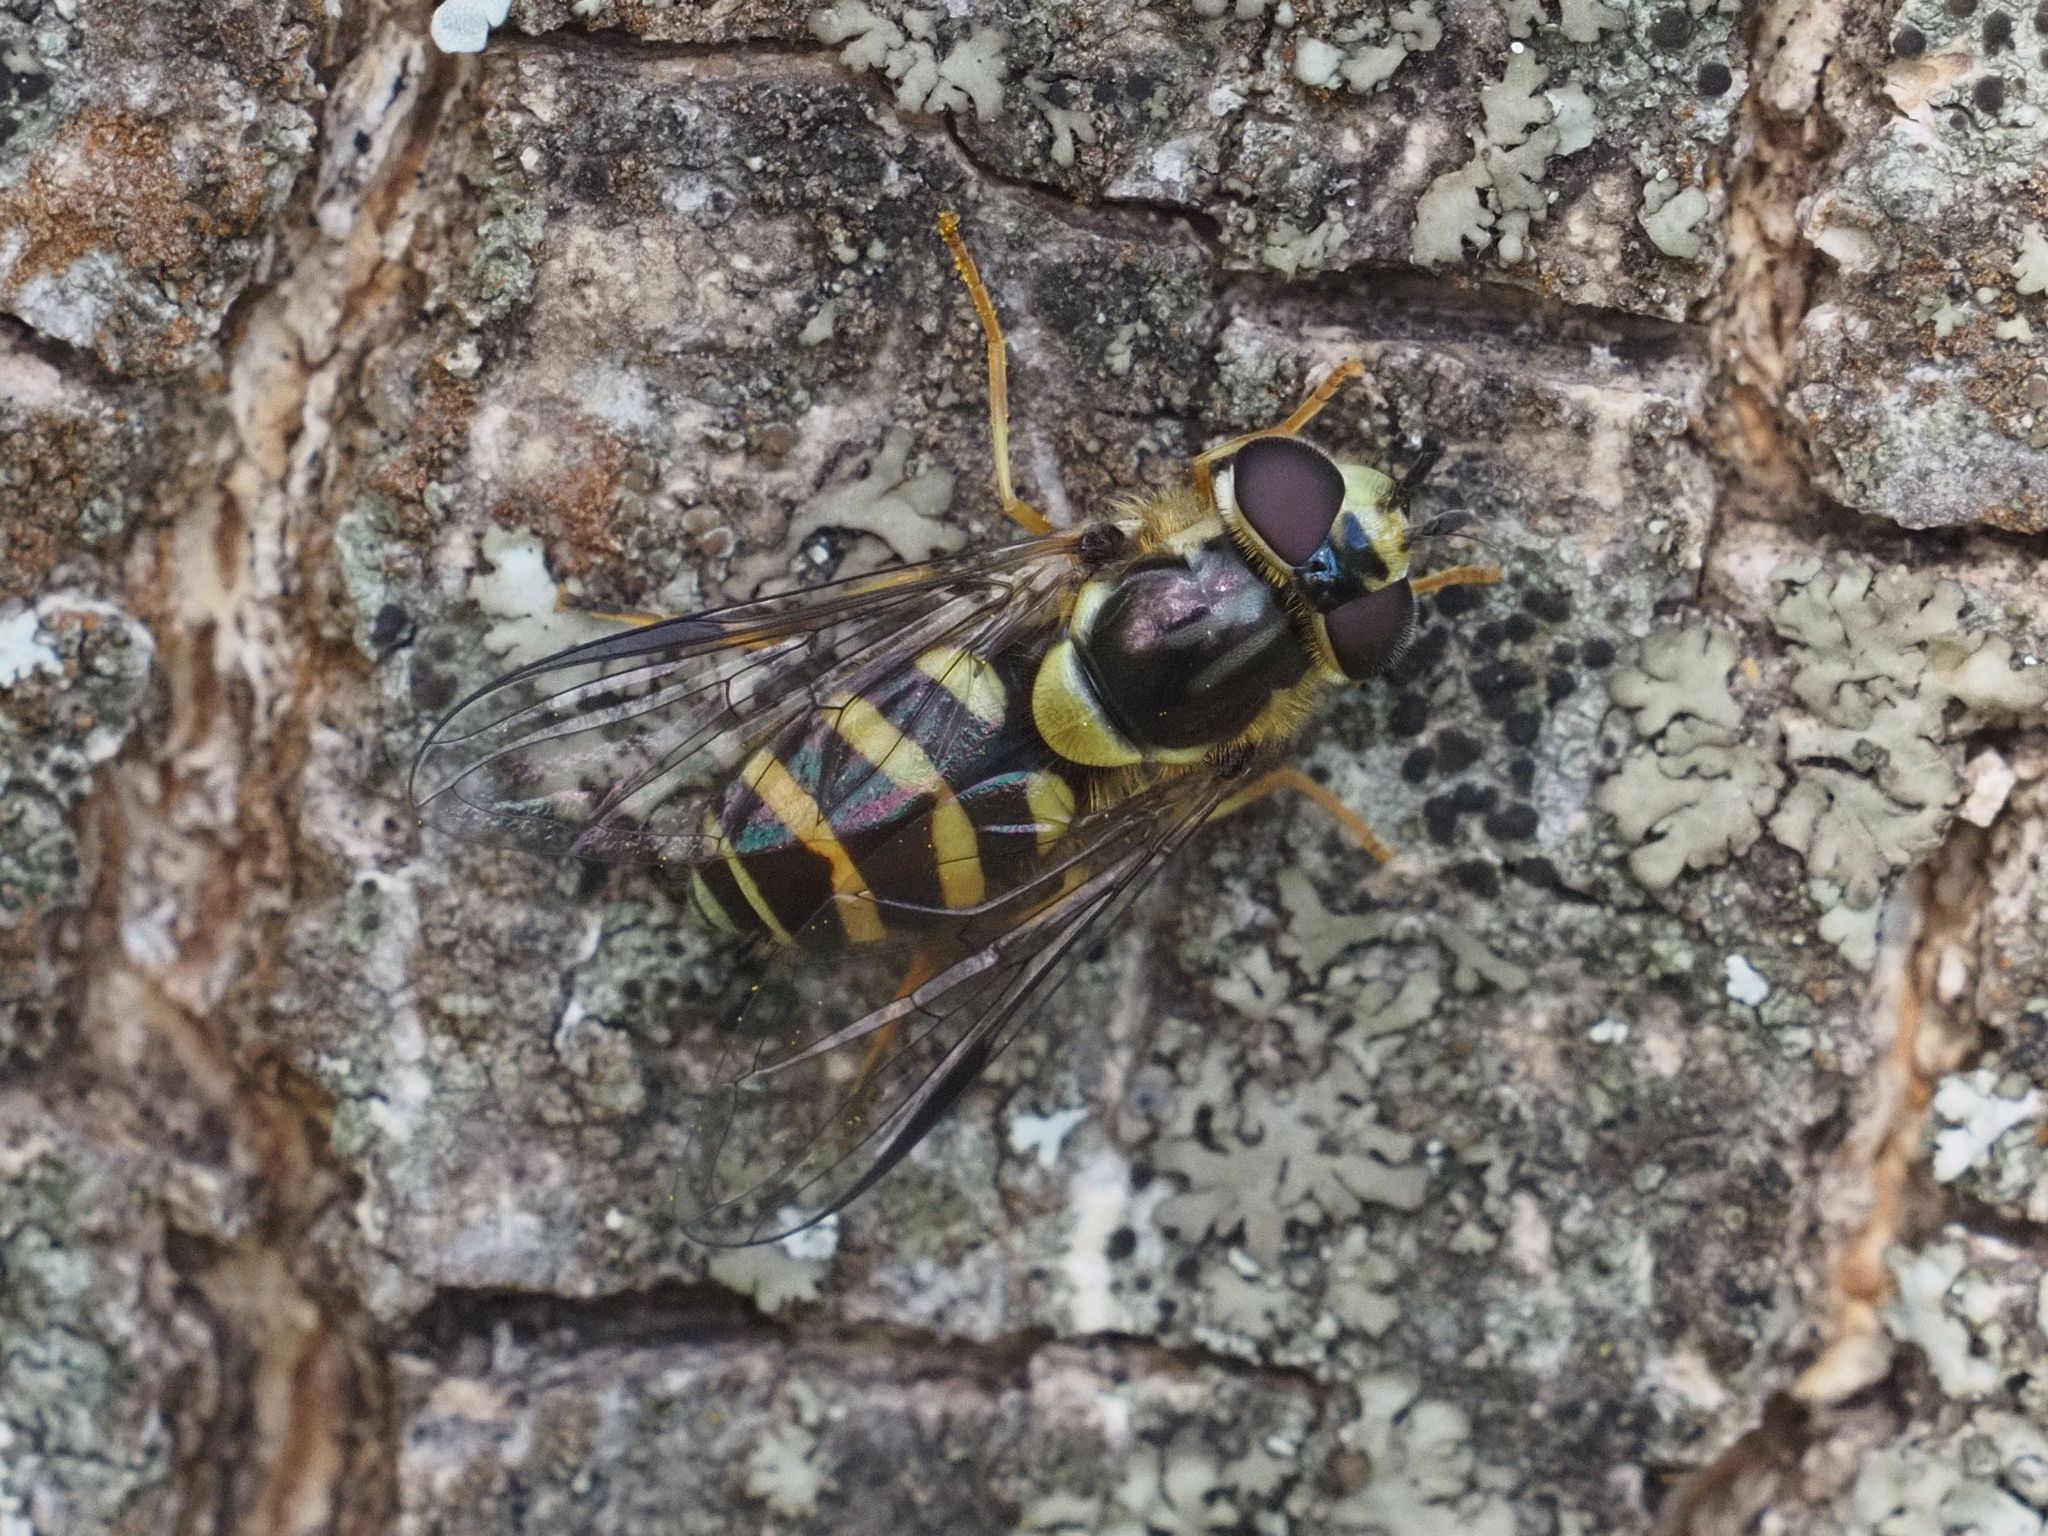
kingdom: Animalia
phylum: Arthropoda
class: Insecta
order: Diptera
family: Syrphidae
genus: Dasysyrphus
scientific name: Dasysyrphus albostriatus
